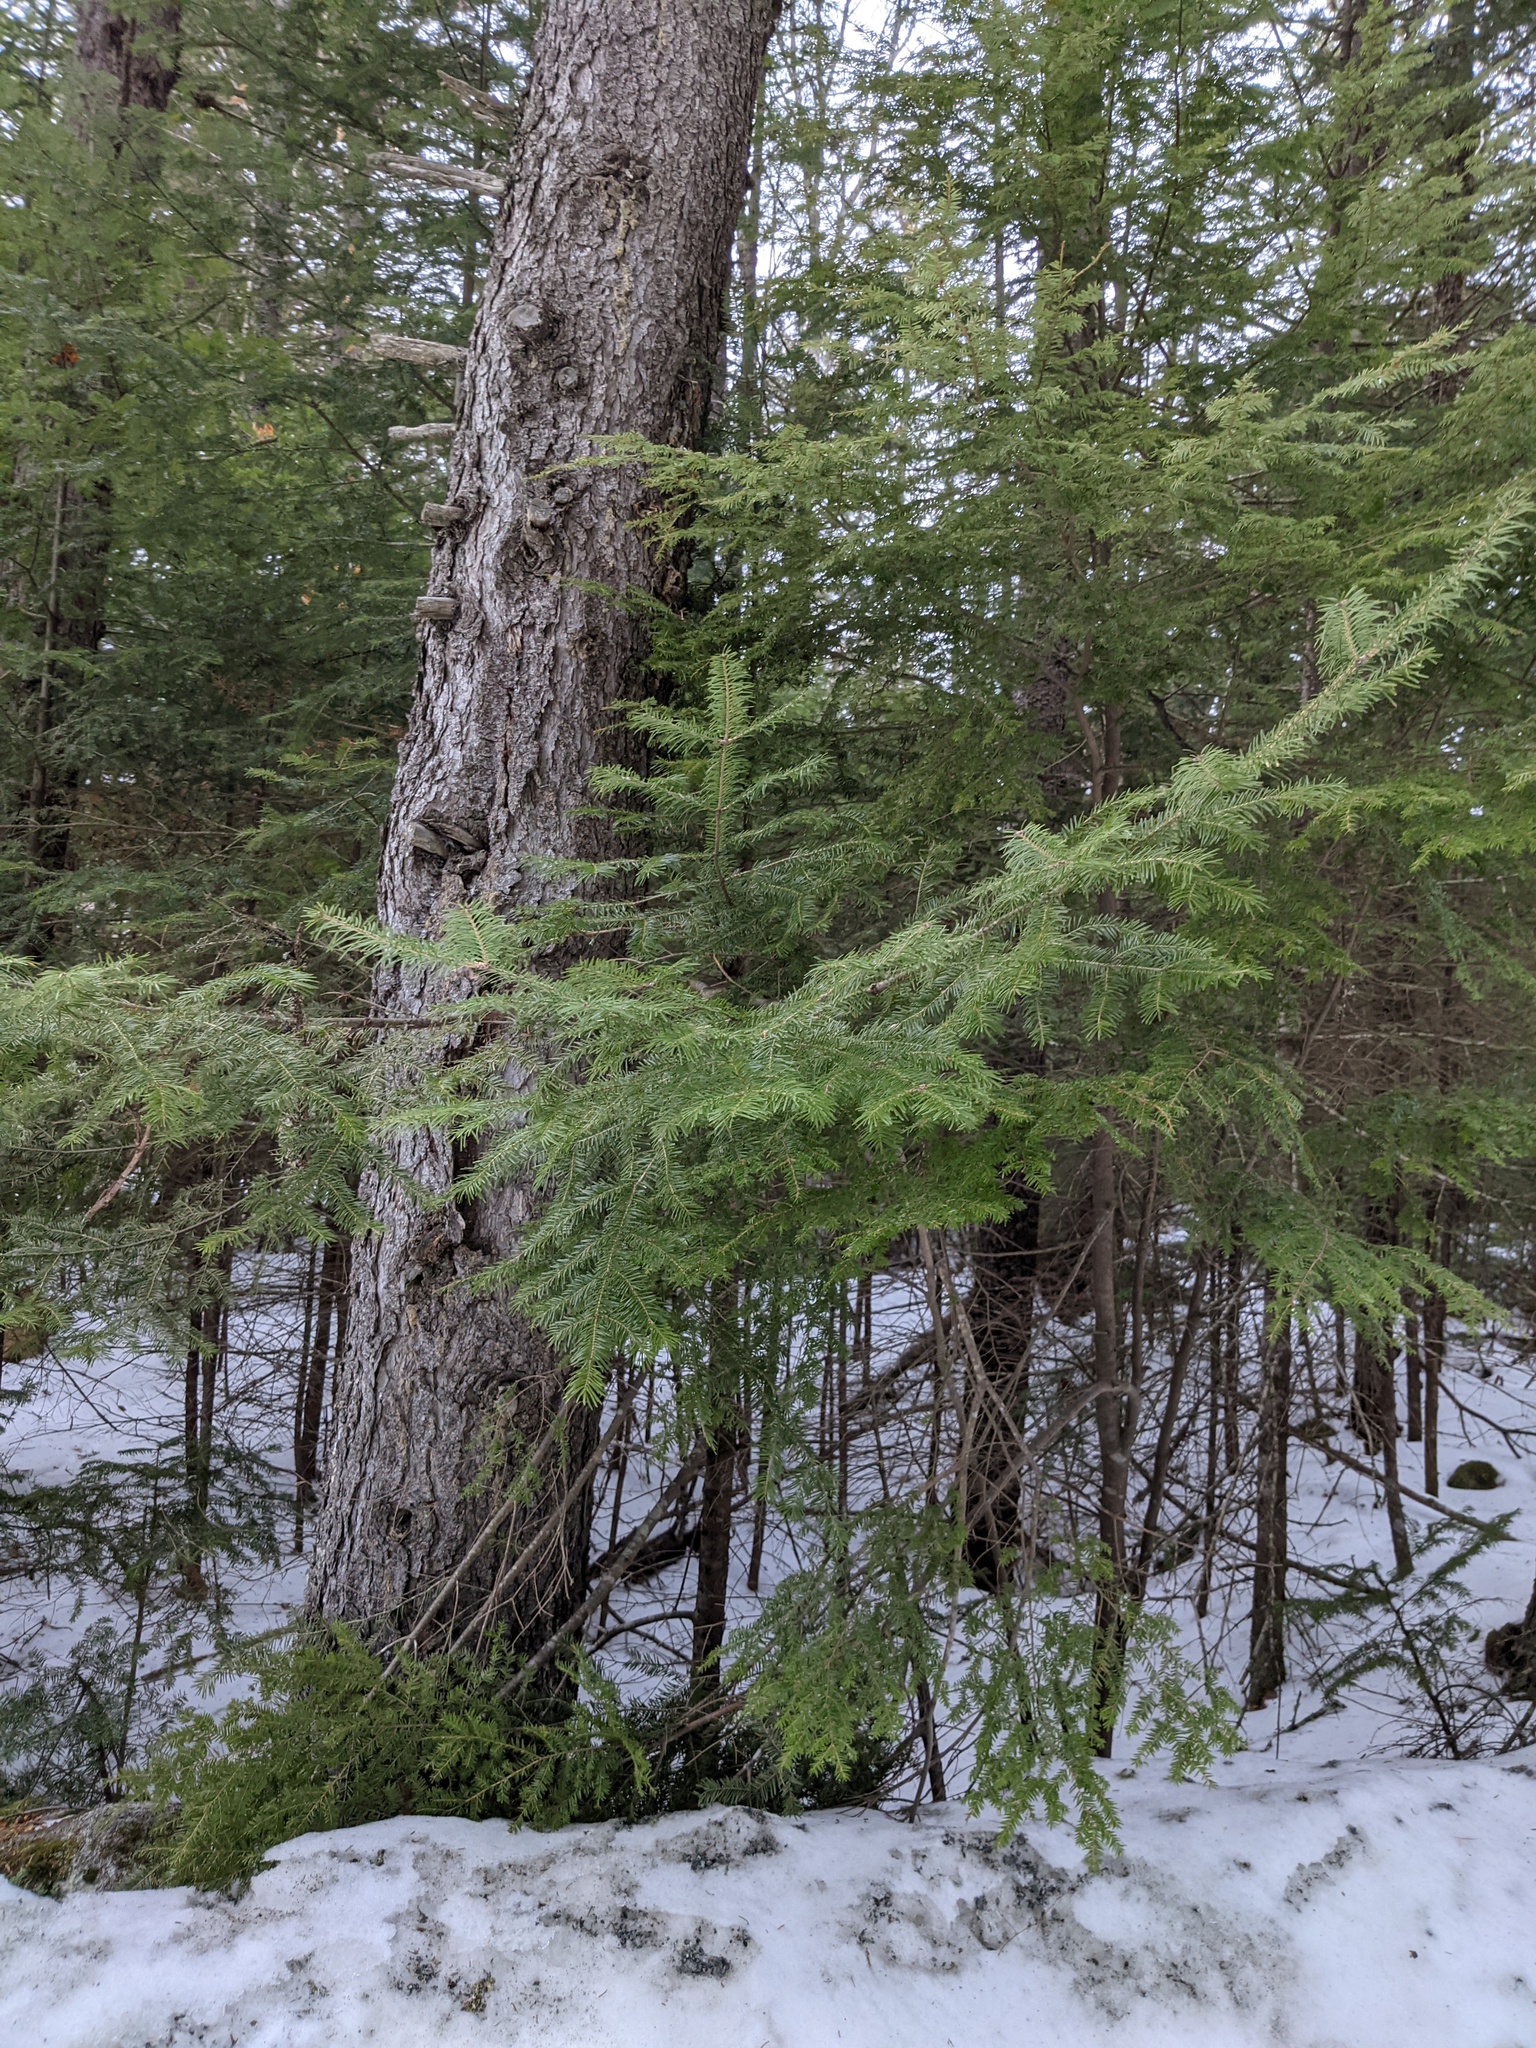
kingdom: Plantae
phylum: Tracheophyta
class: Pinopsida
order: Pinales
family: Pinaceae
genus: Abies
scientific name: Abies balsamea
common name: Balsam fir
